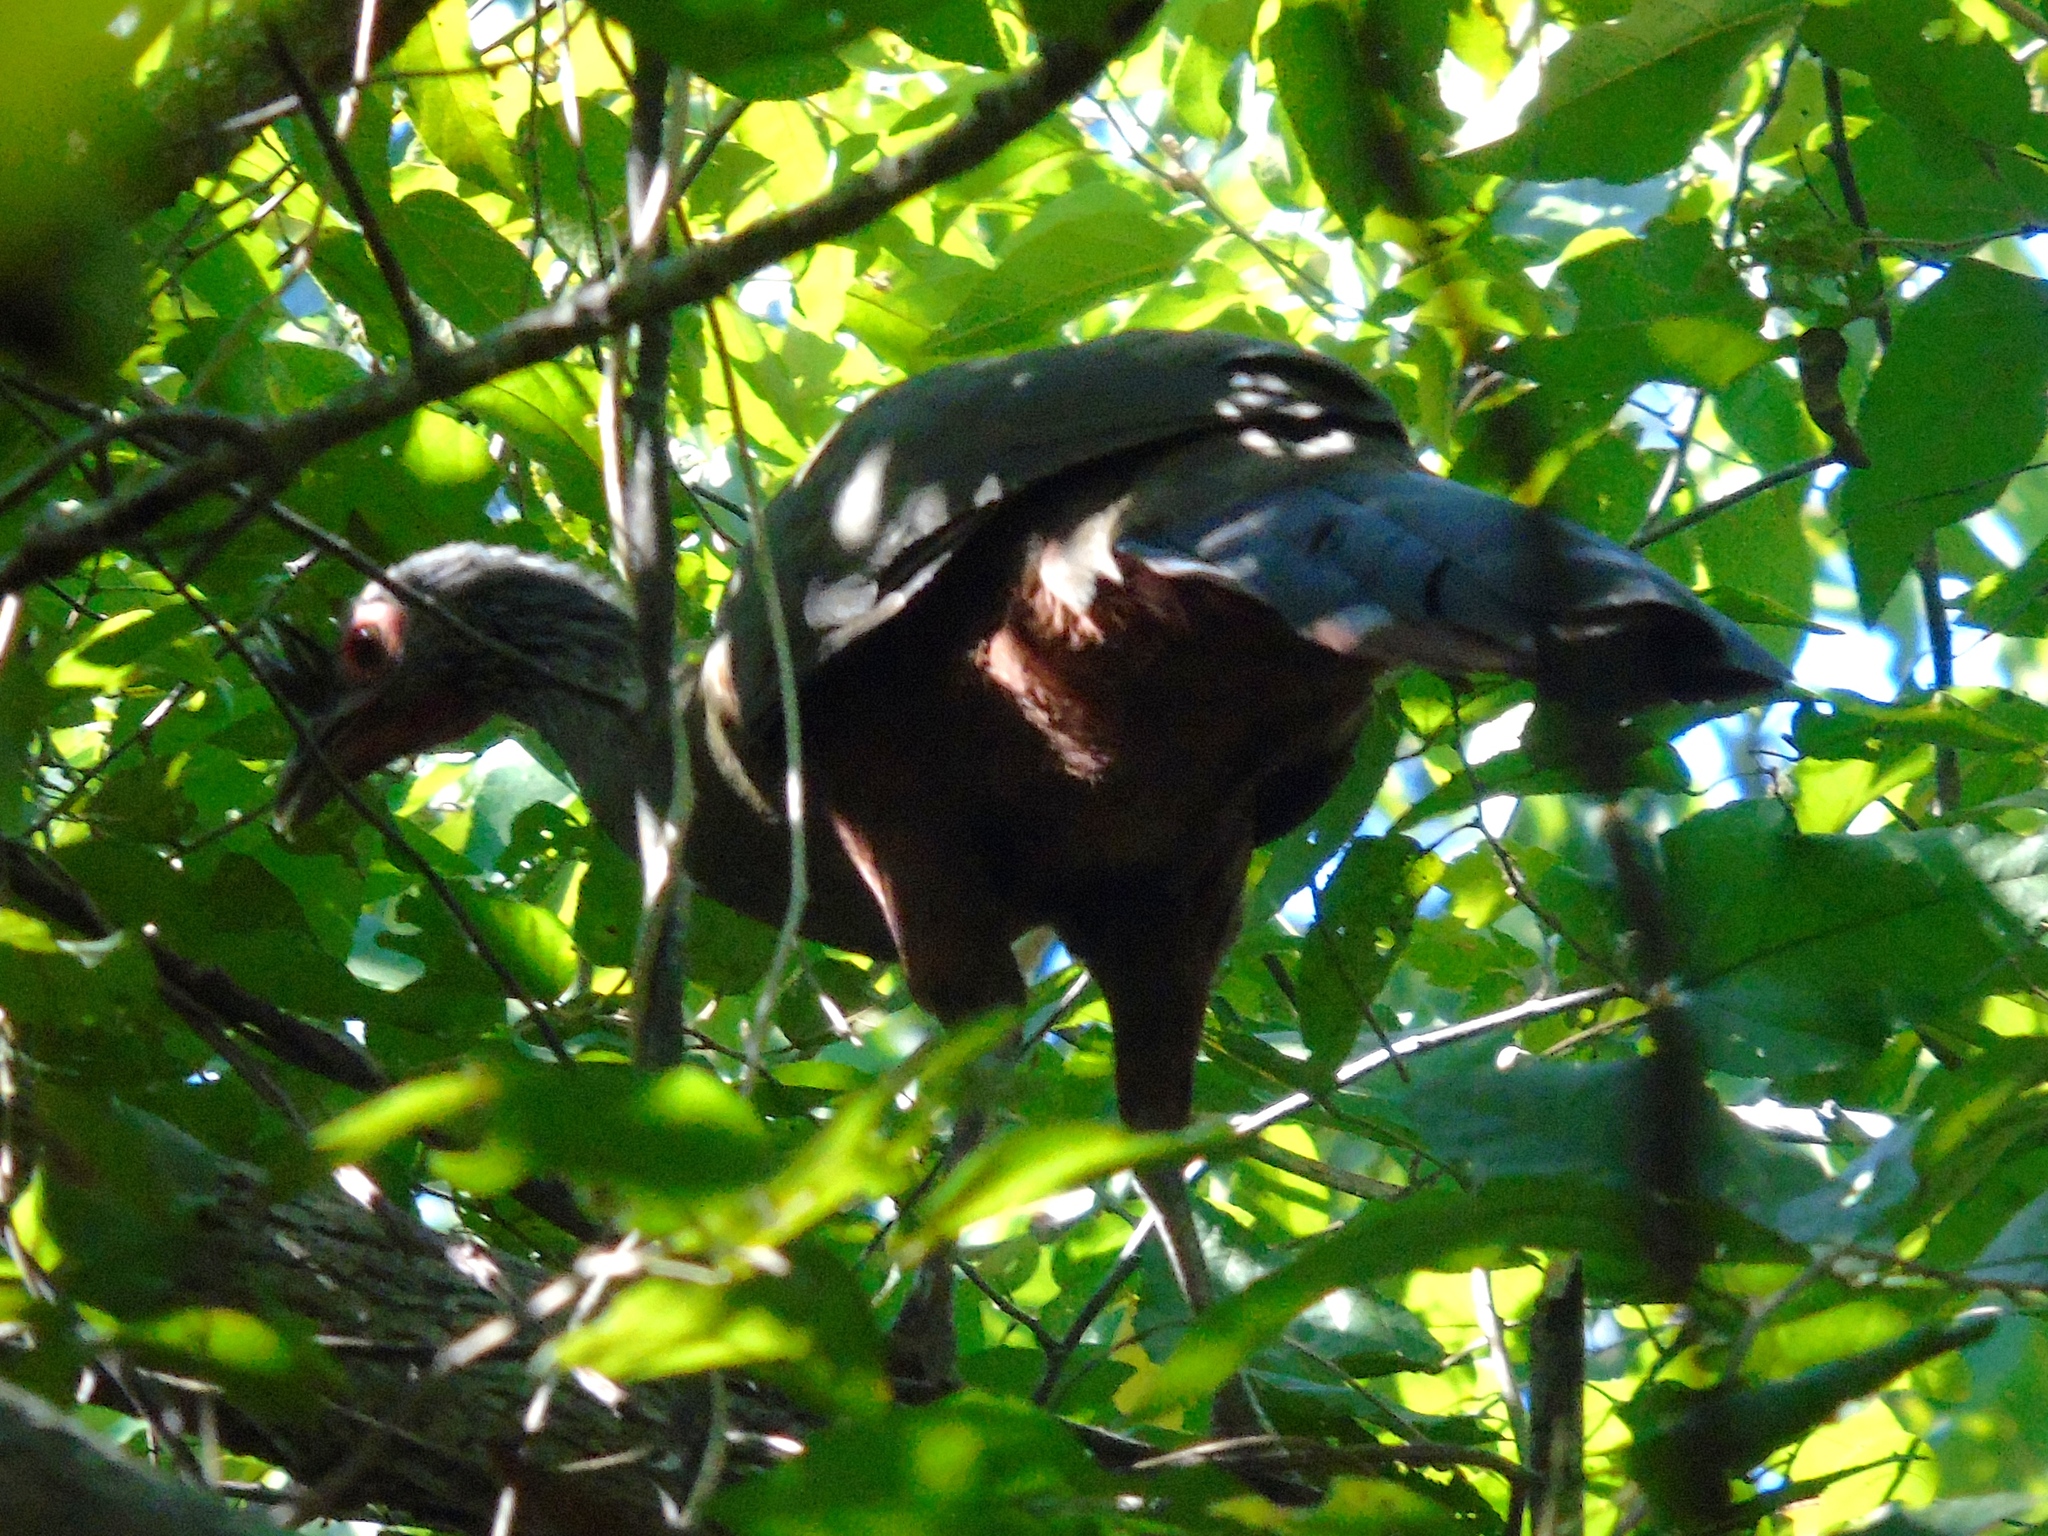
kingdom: Animalia
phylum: Chordata
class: Aves
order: Galliformes
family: Cracidae
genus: Ortalis
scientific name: Ortalis wagleri
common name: Rufous-bellied chachalaca
